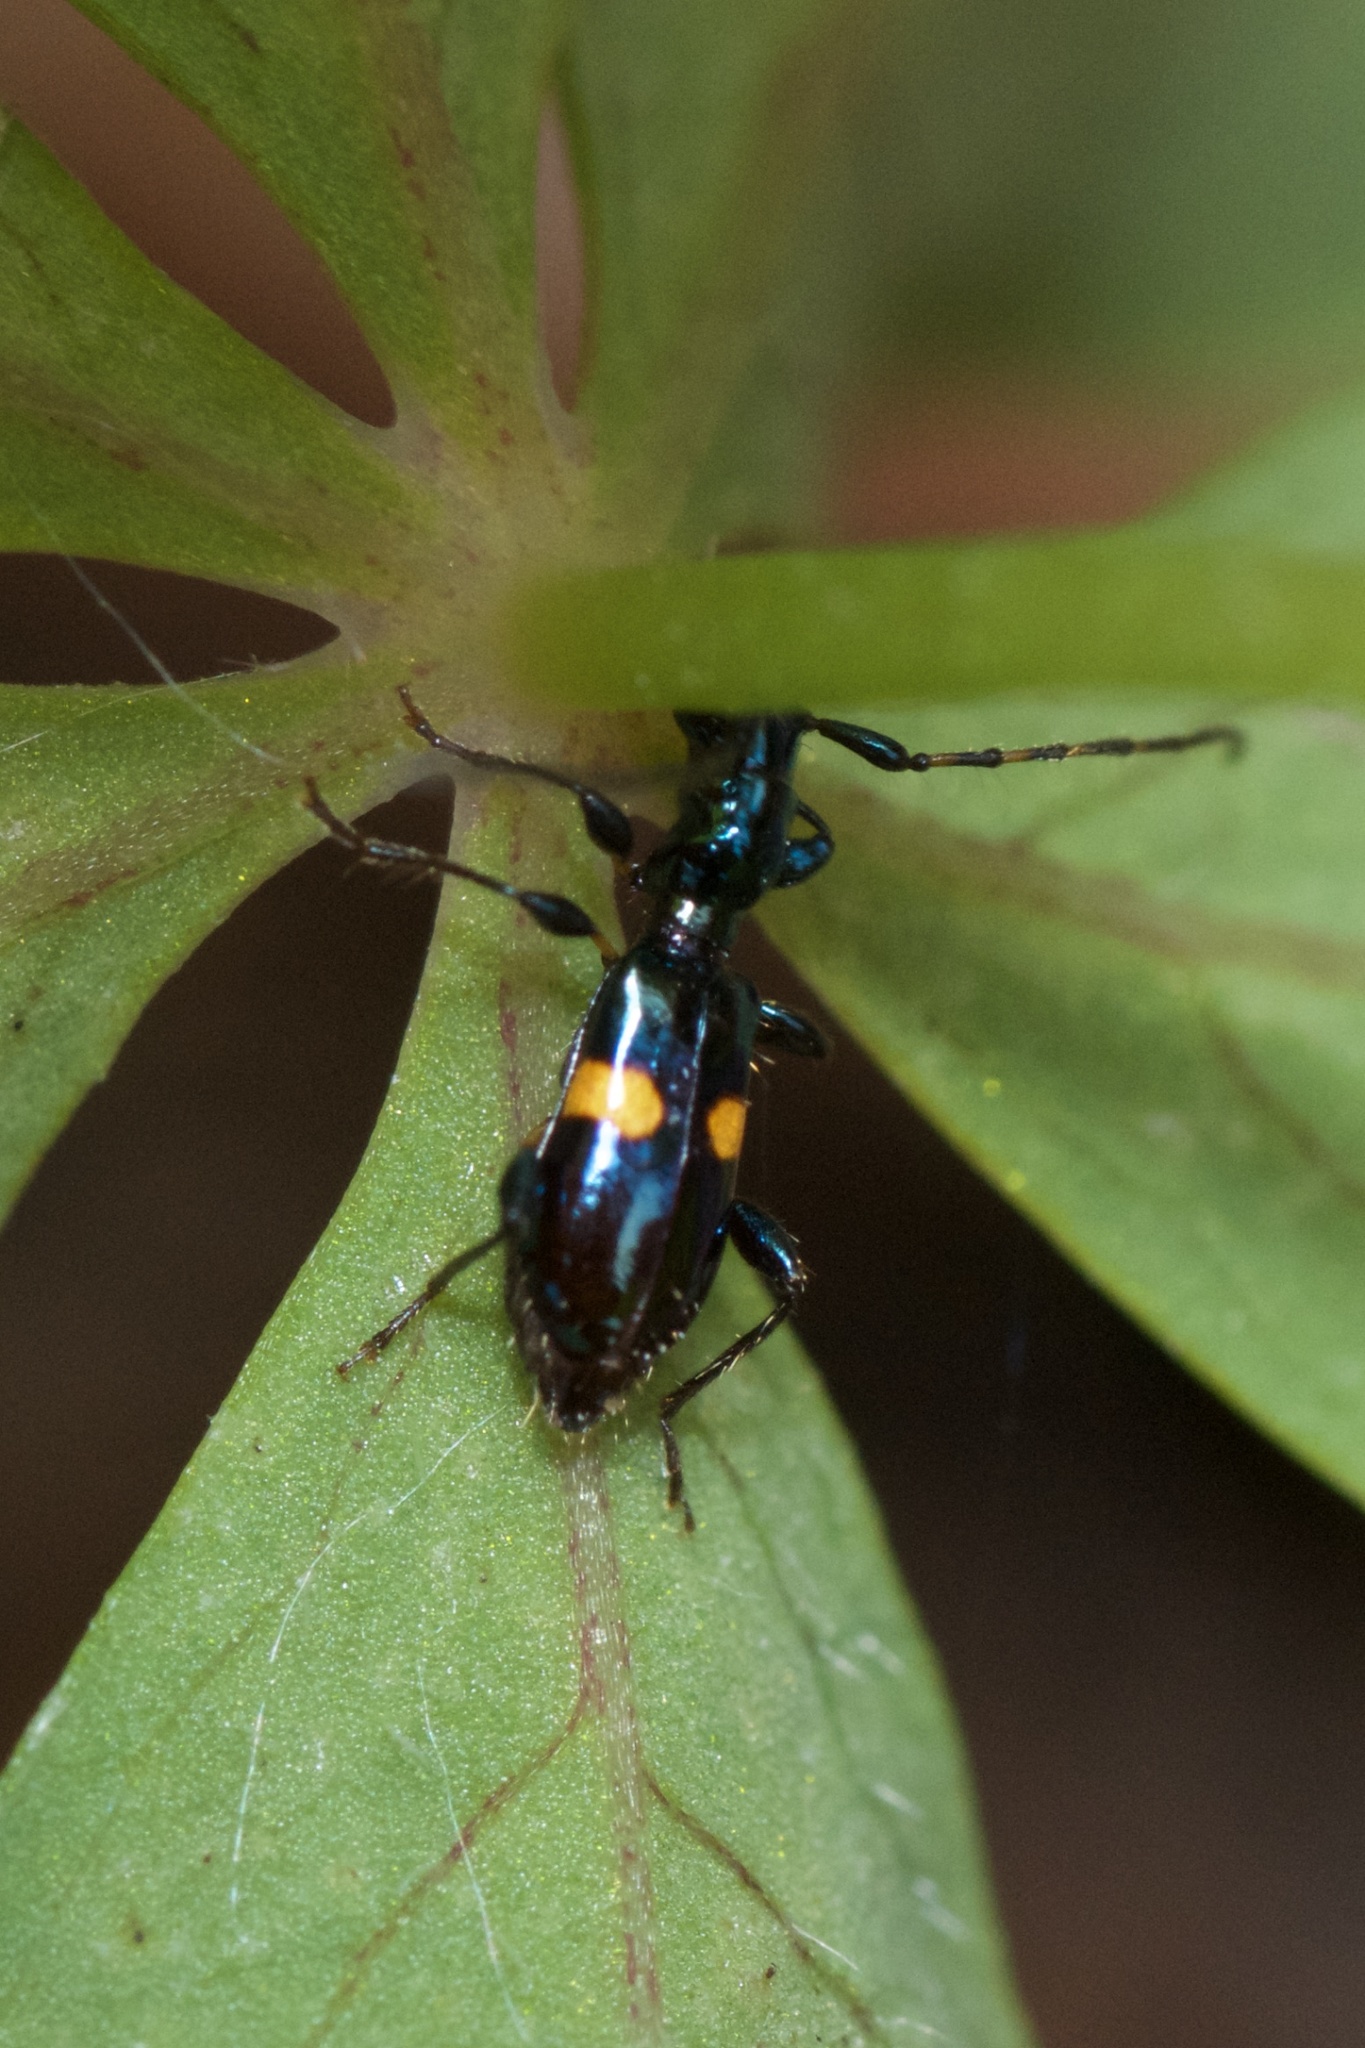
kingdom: Animalia
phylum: Arthropoda
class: Insecta
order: Coleoptera
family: Cerambycidae
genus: Zorion
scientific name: Zorion guttigerum
